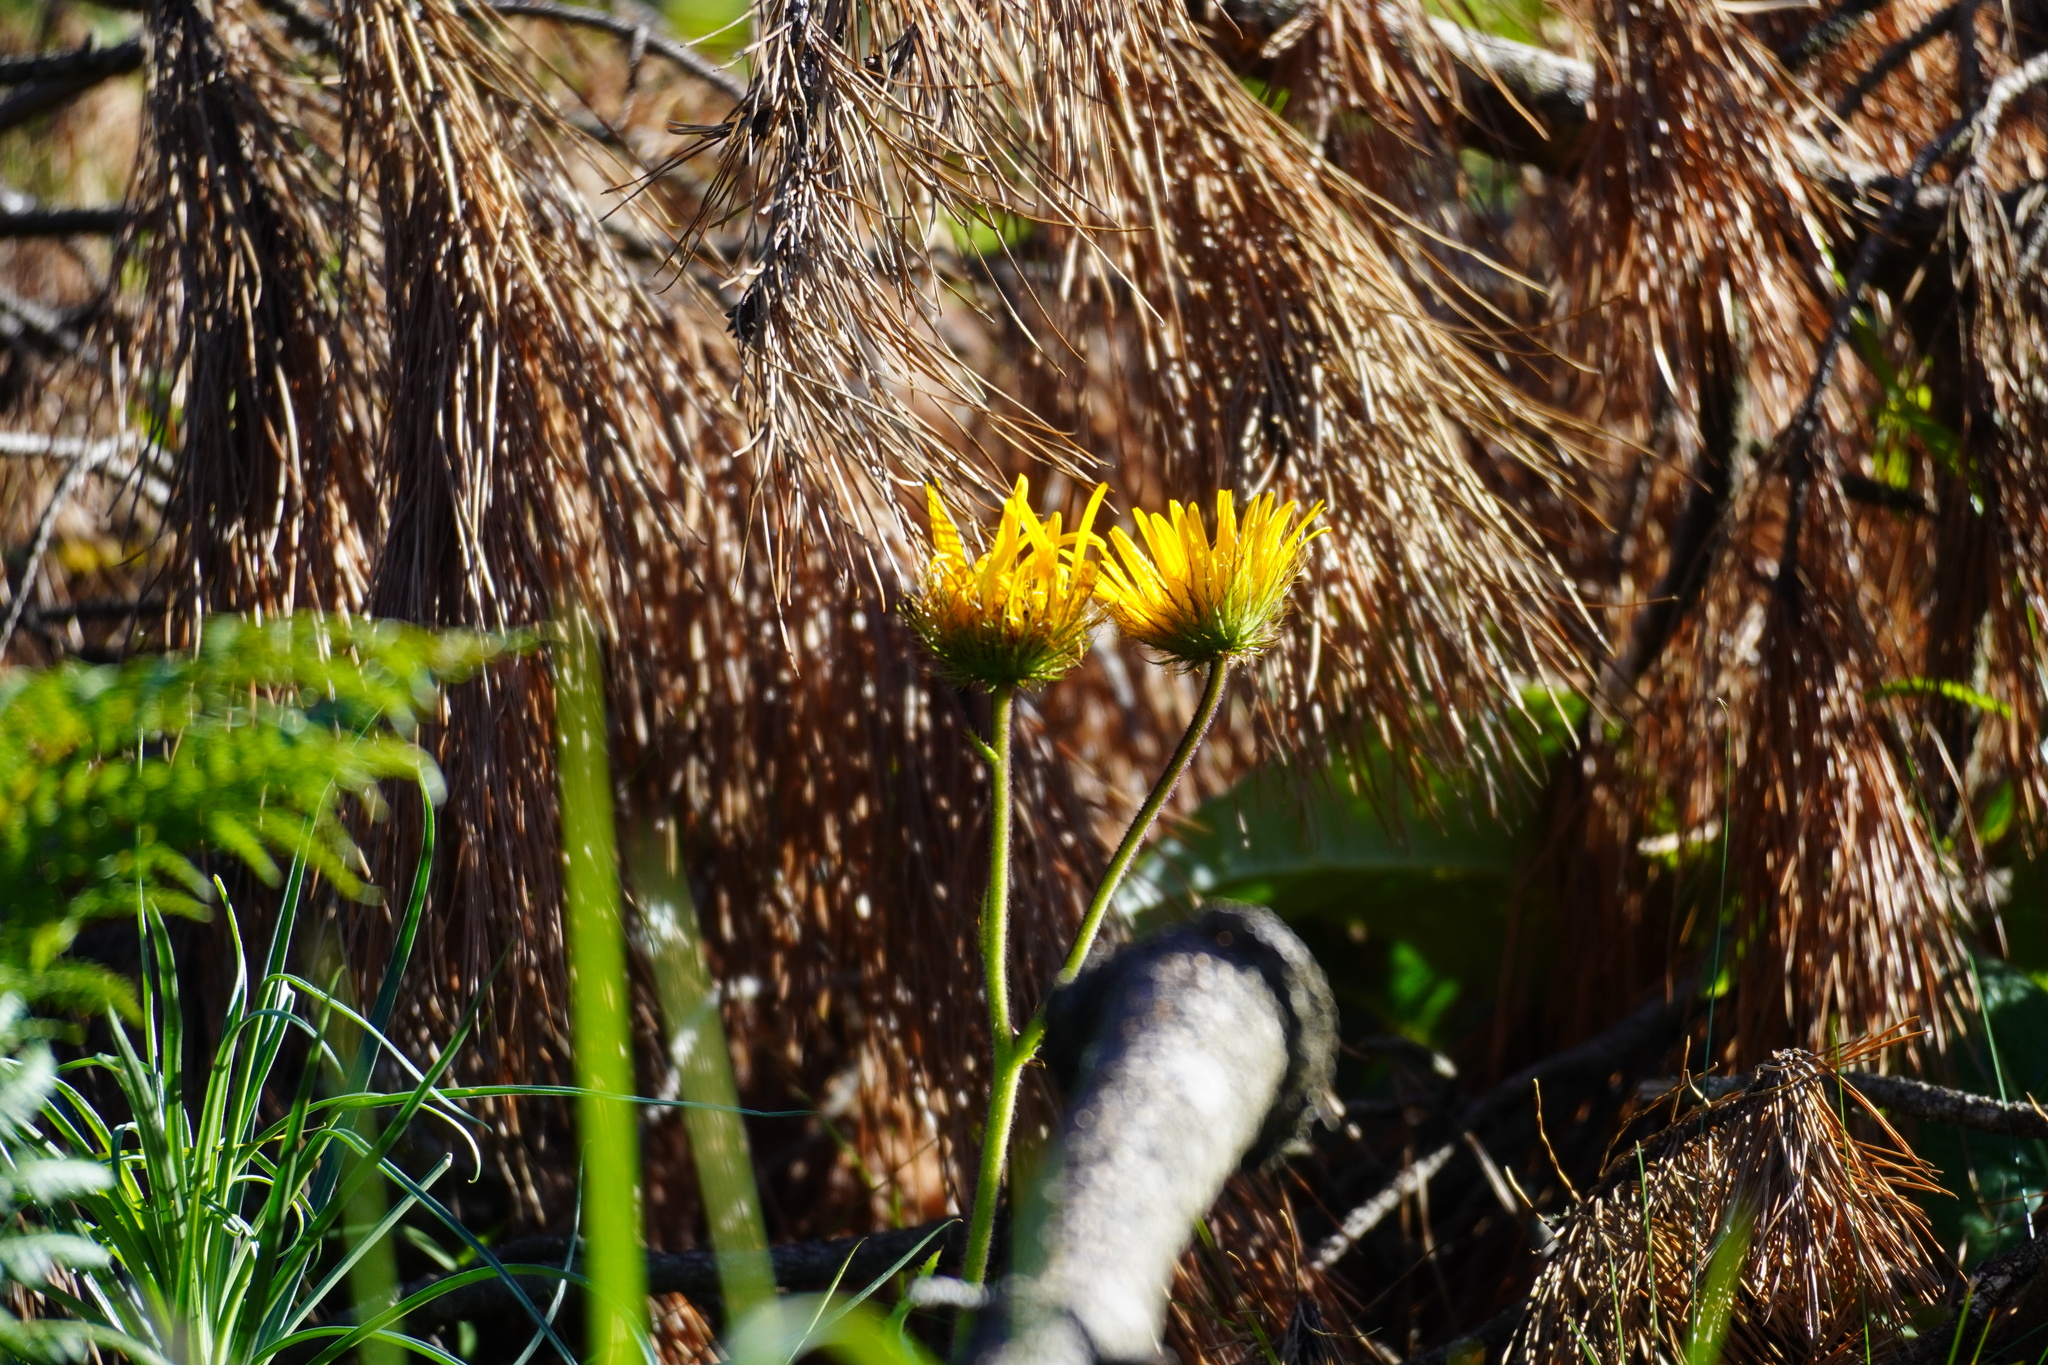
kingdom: Plantae
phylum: Tracheophyta
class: Magnoliopsida
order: Asterales
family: Asteraceae
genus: Berkheya
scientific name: Berkheya speciosa
